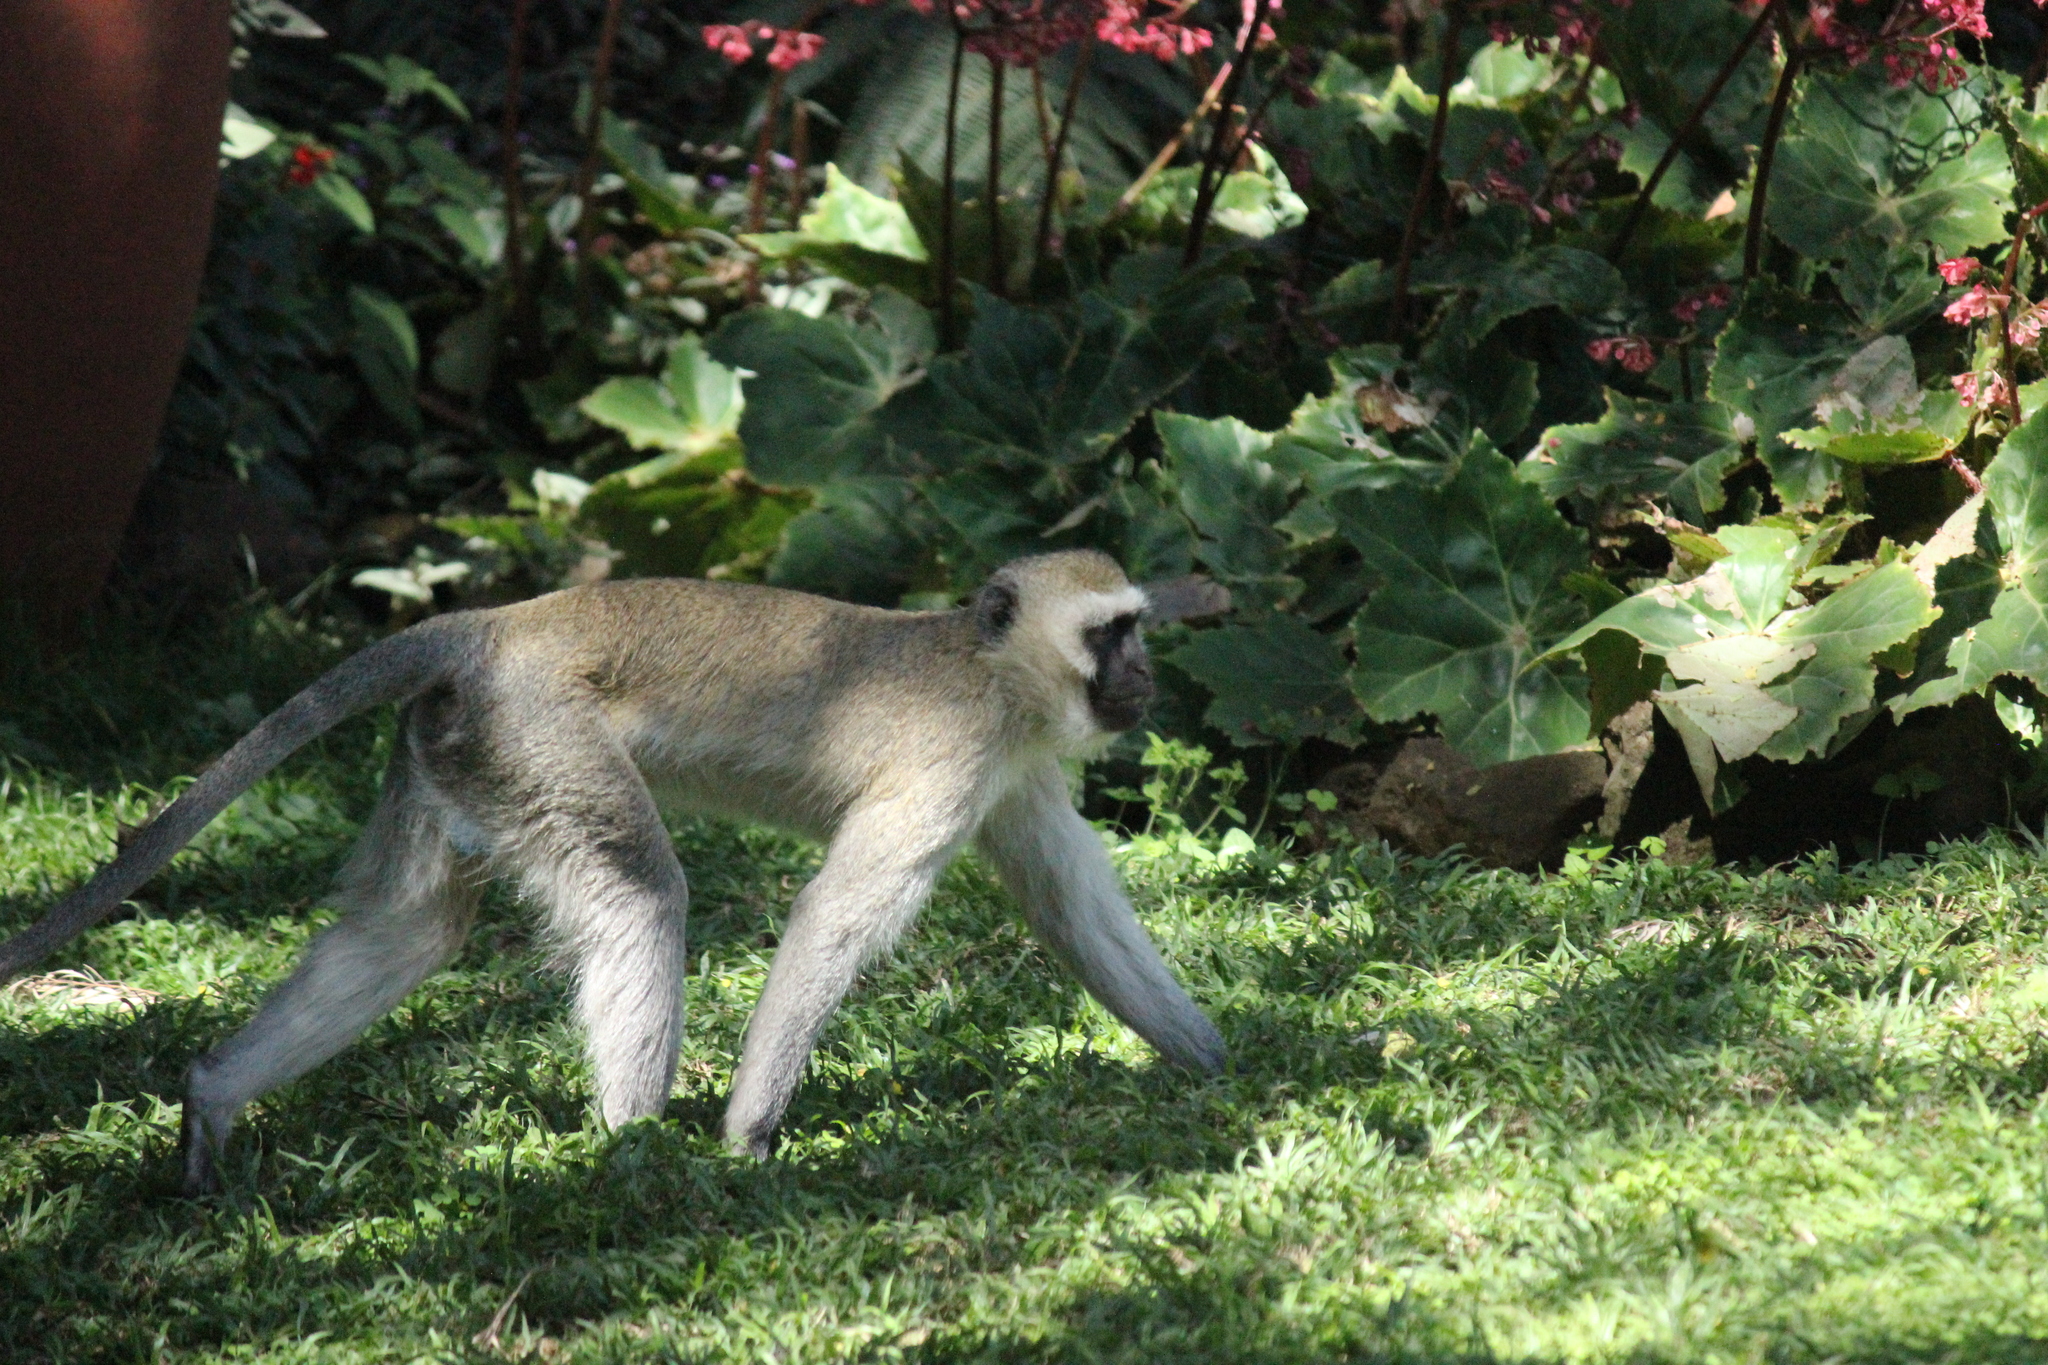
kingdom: Animalia
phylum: Chordata
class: Mammalia
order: Primates
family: Cercopithecidae
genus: Chlorocebus
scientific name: Chlorocebus pygerythrus
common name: Vervet monkey
